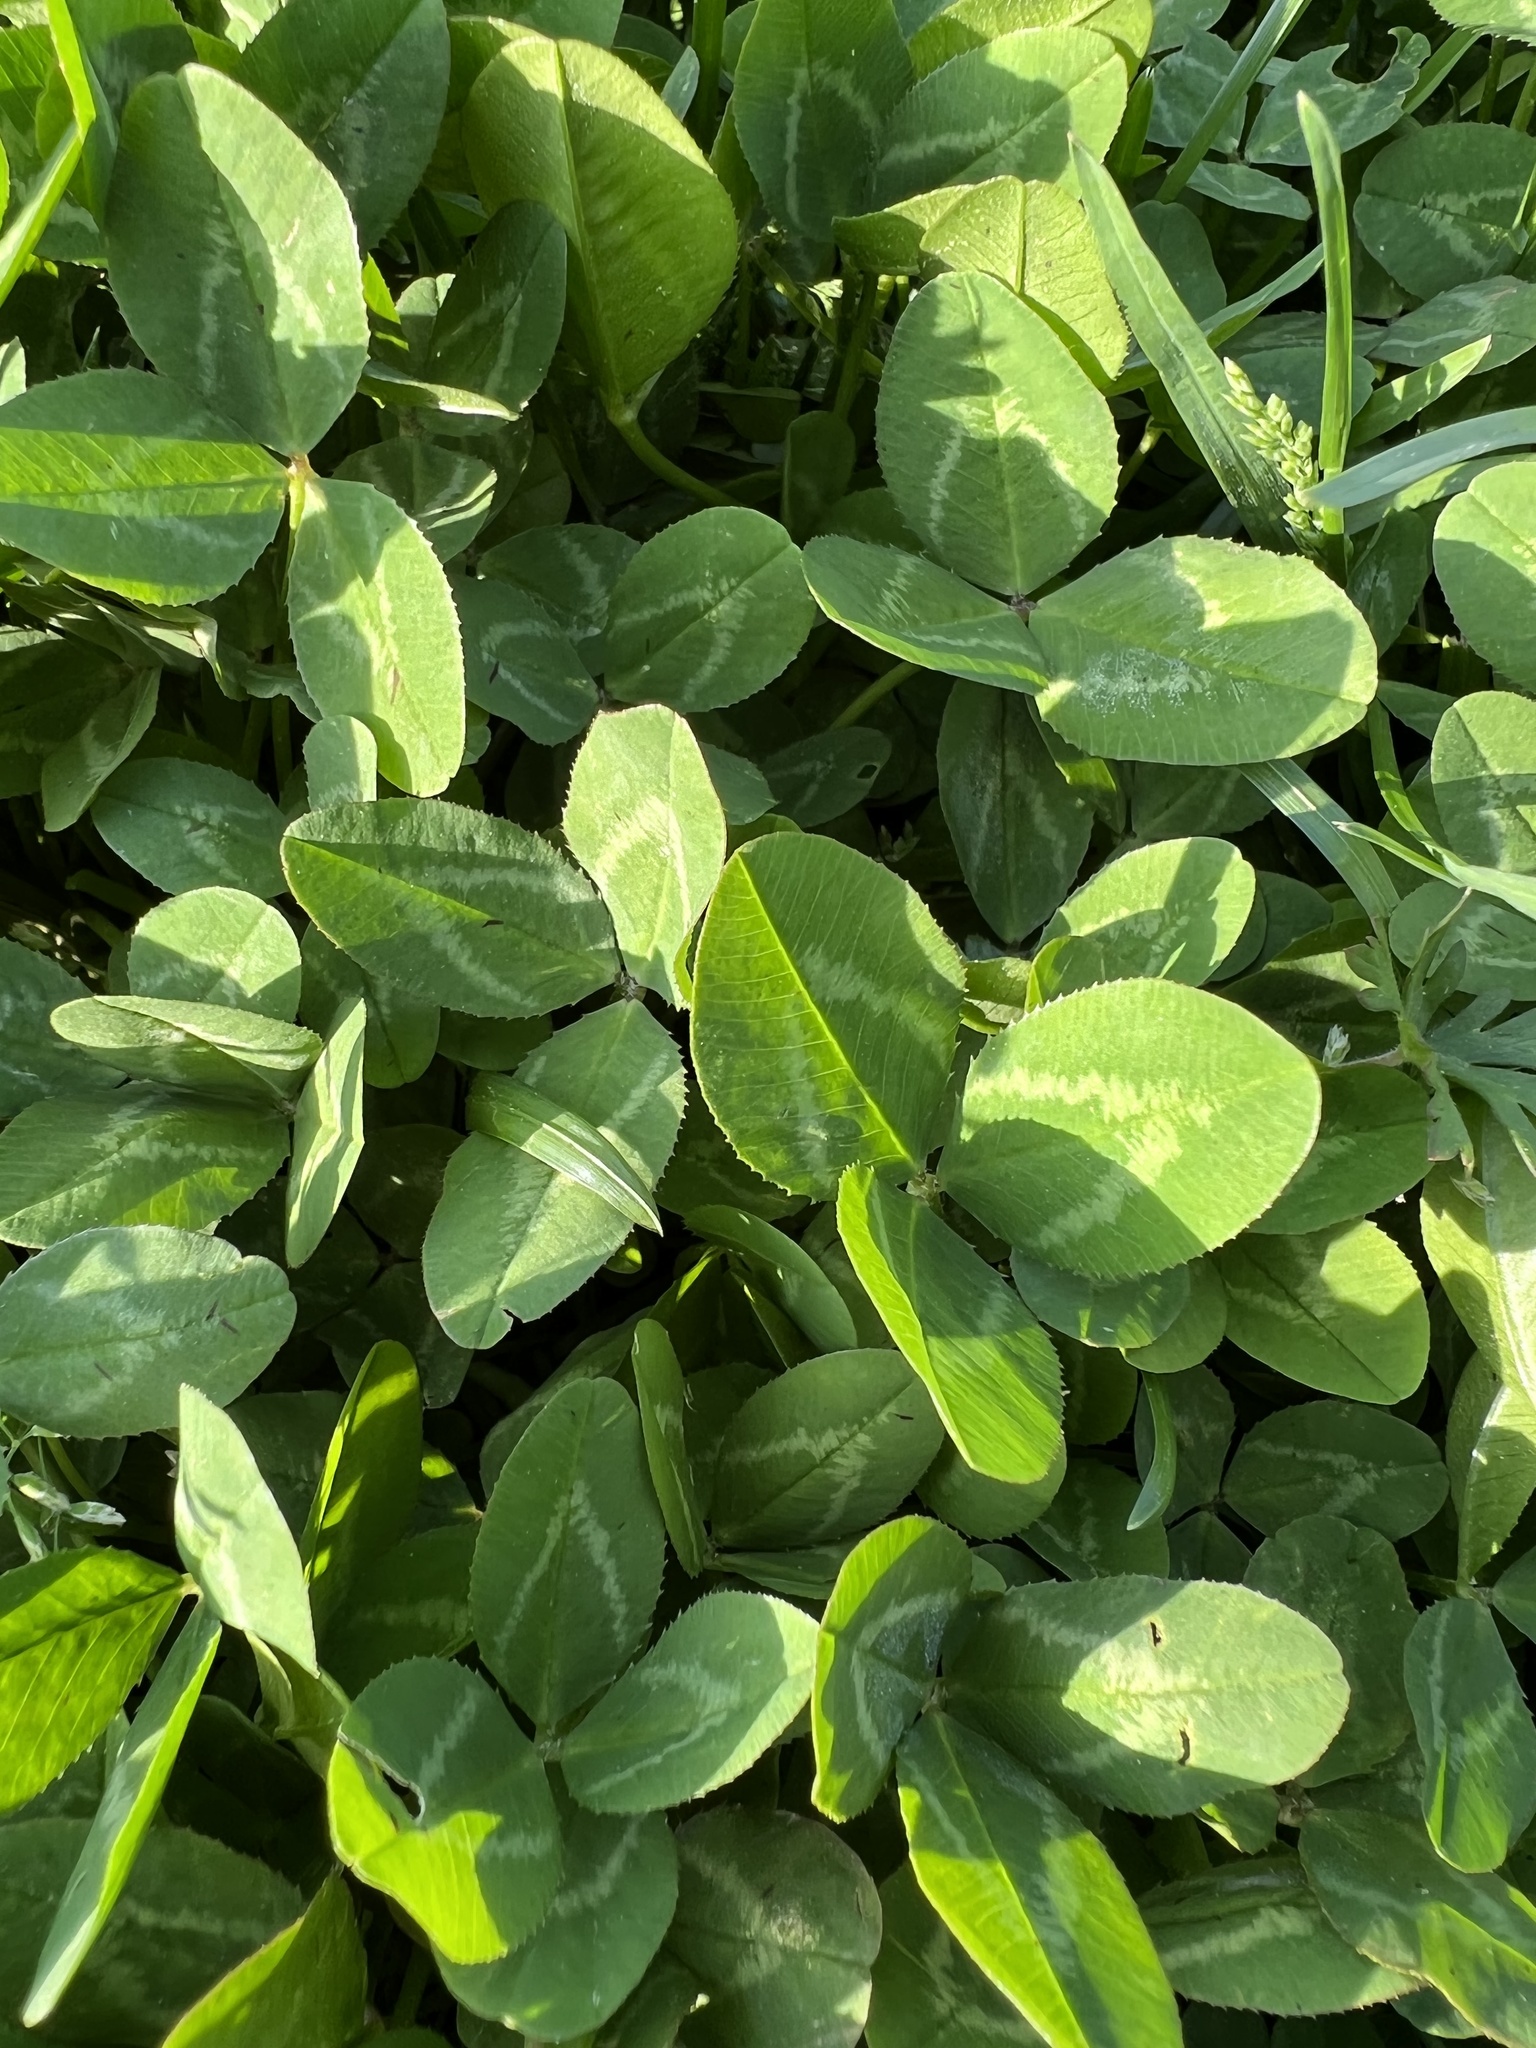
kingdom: Plantae
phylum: Tracheophyta
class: Magnoliopsida
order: Fabales
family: Fabaceae
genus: Trifolium
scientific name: Trifolium repens
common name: White clover
